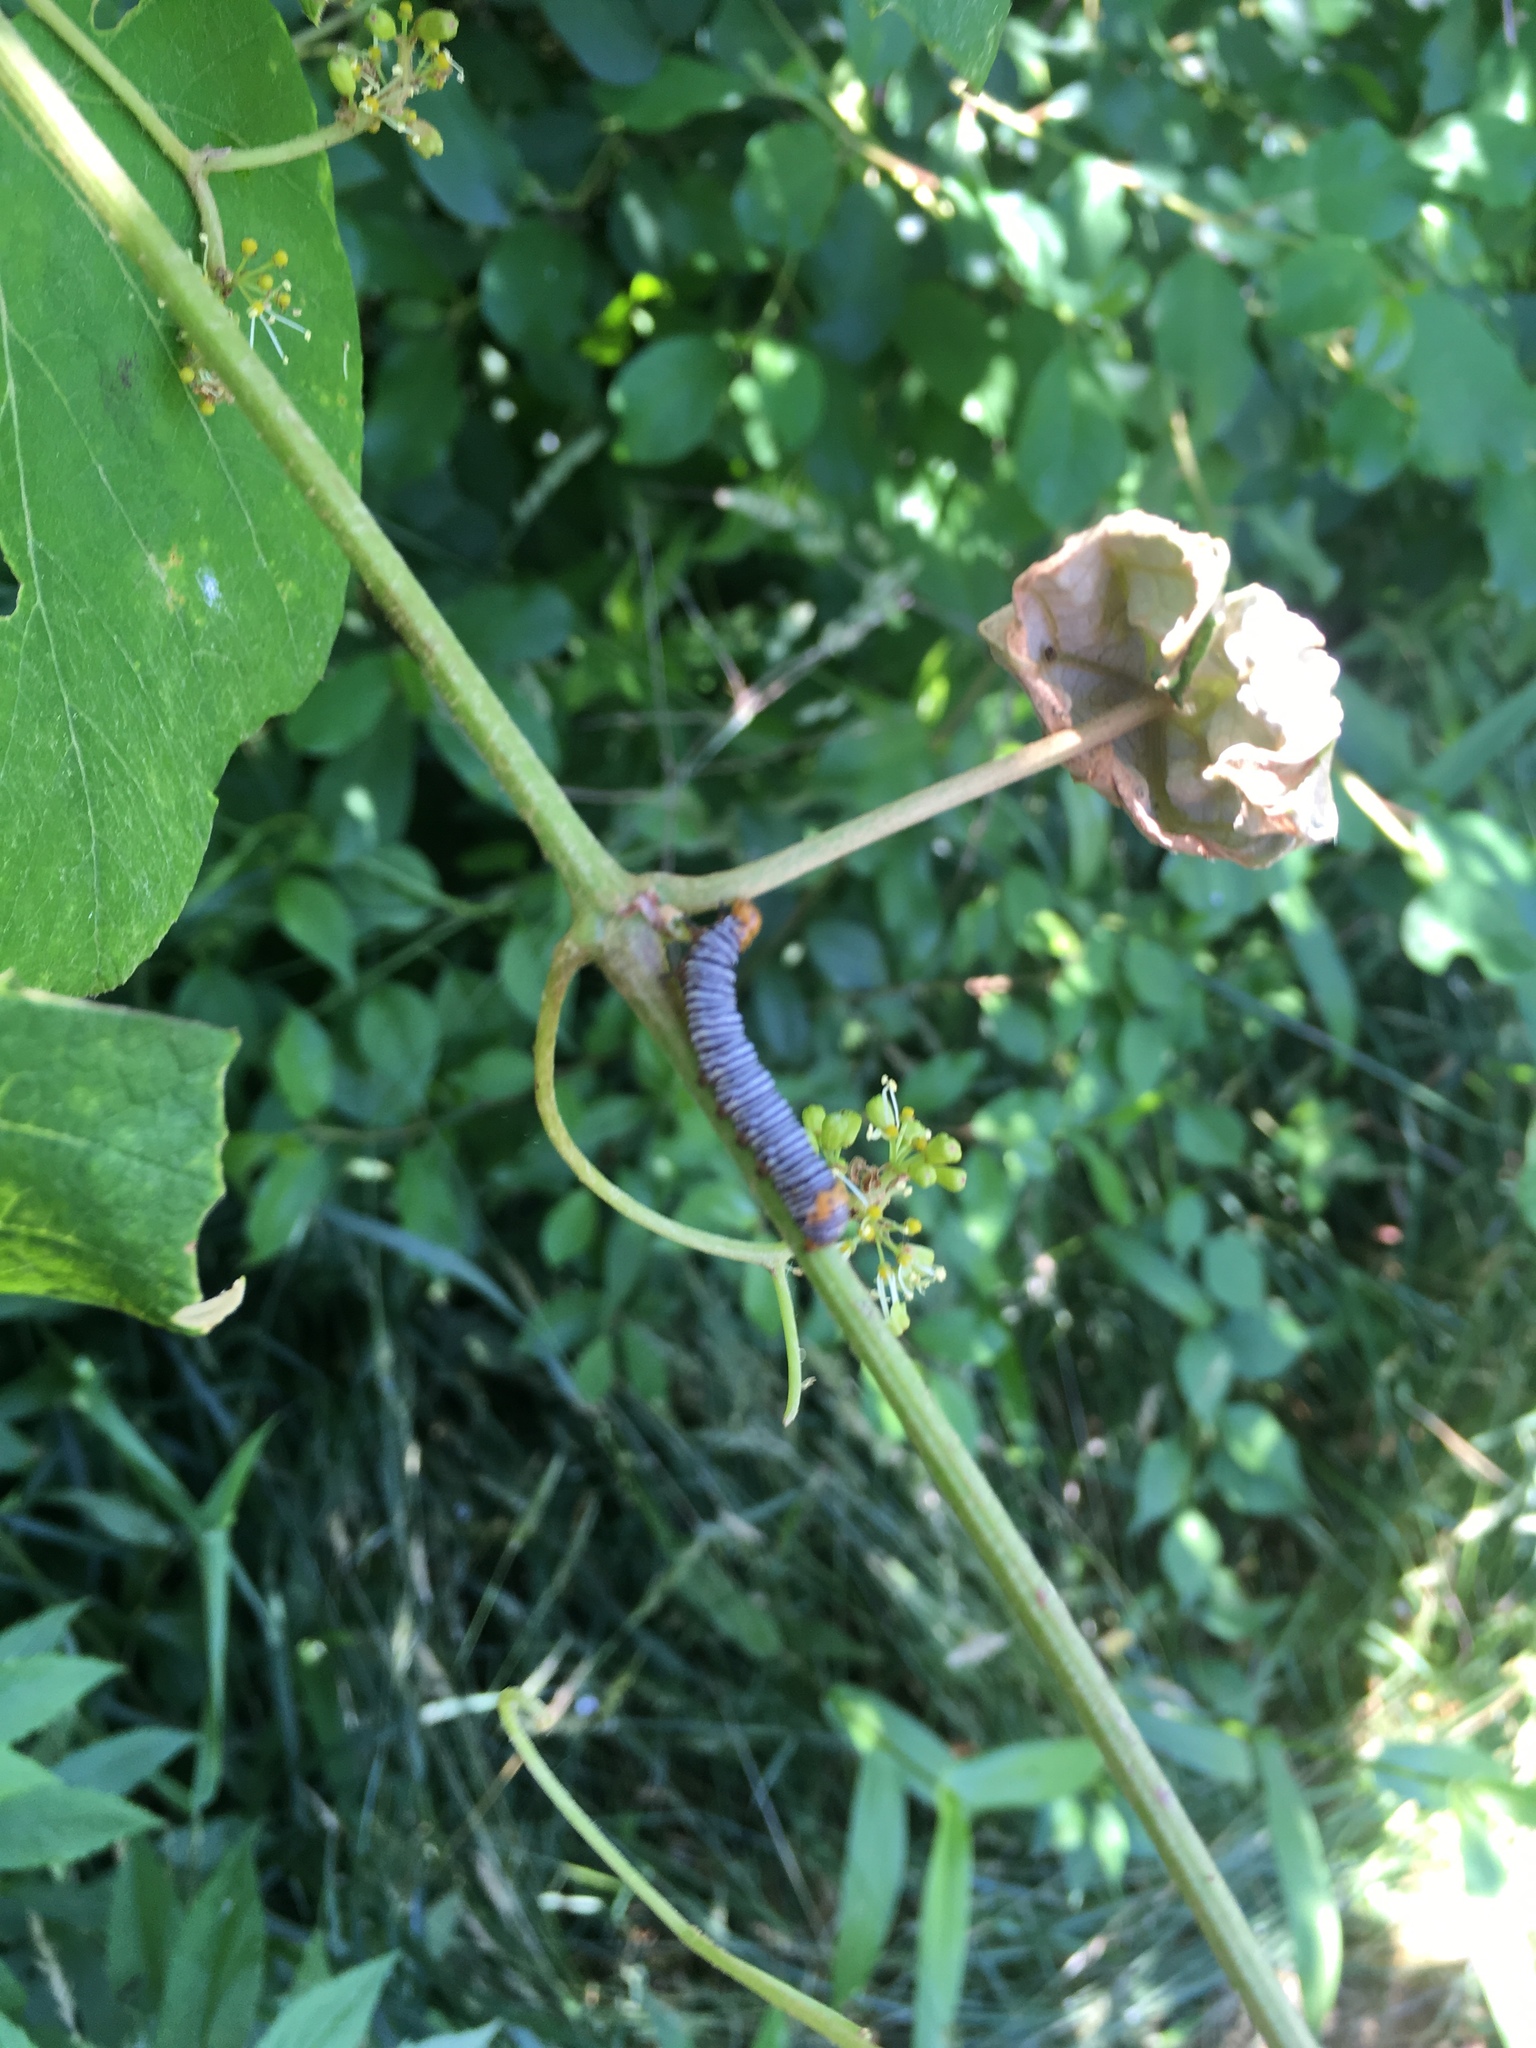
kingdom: Animalia
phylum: Arthropoda
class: Insecta
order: Lepidoptera
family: Noctuidae
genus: Psychomorpha
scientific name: Psychomorpha epimenis
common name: Grapevine epimenis moth
